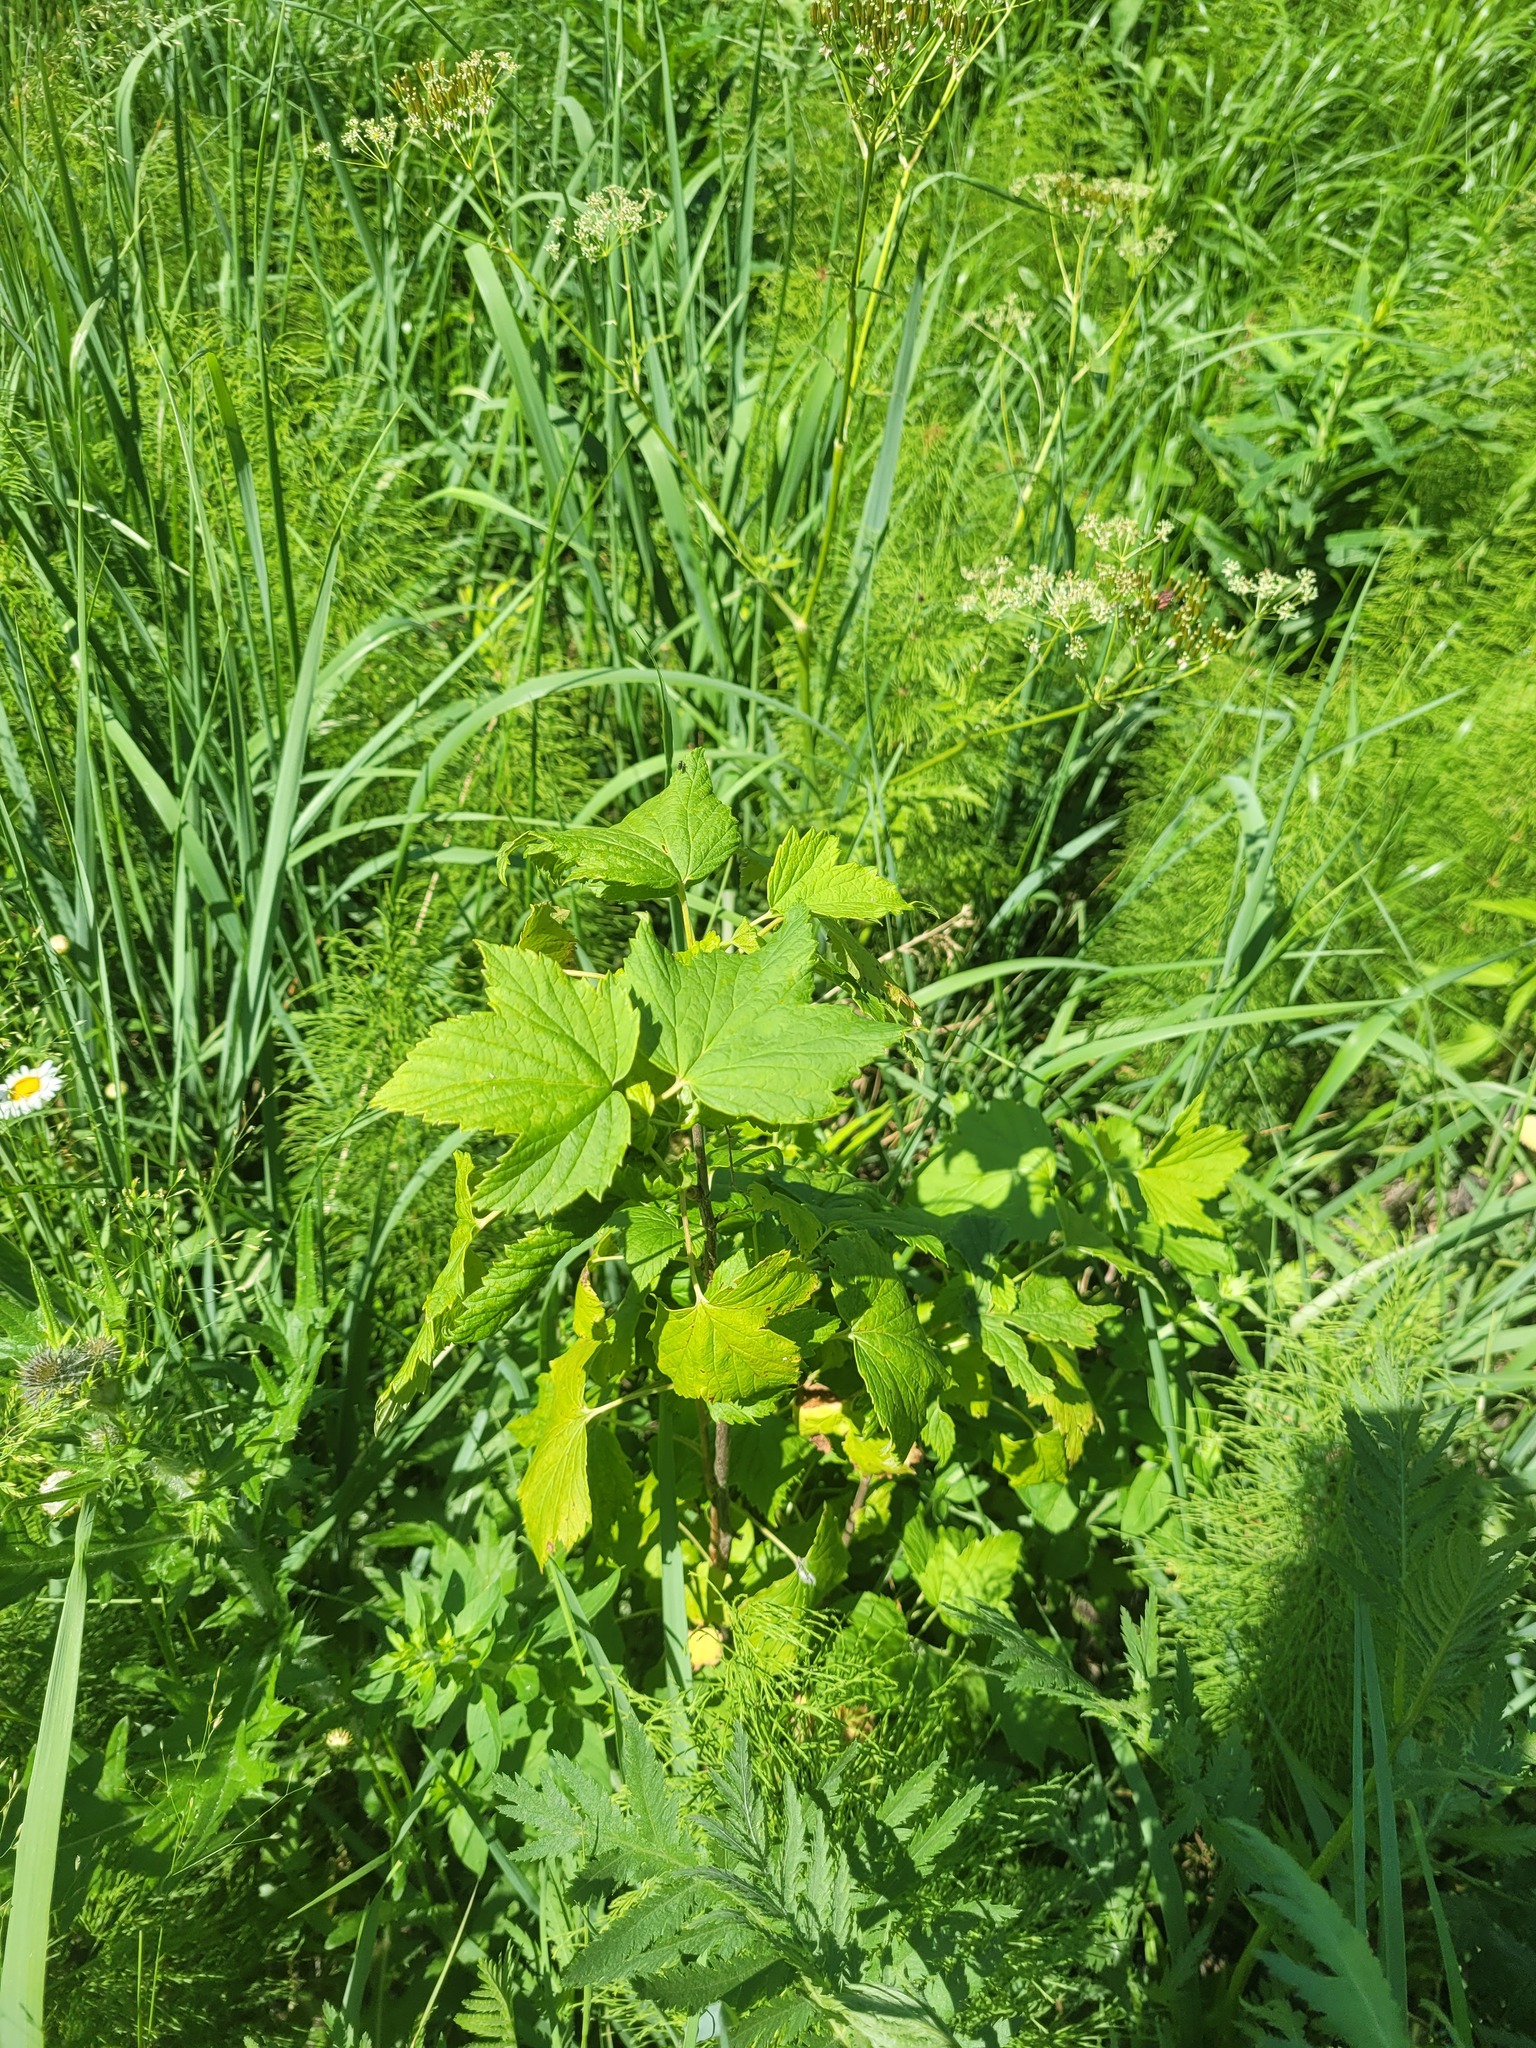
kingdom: Plantae
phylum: Tracheophyta
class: Magnoliopsida
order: Saxifragales
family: Grossulariaceae
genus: Ribes
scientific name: Ribes nigrum
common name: Black currant
